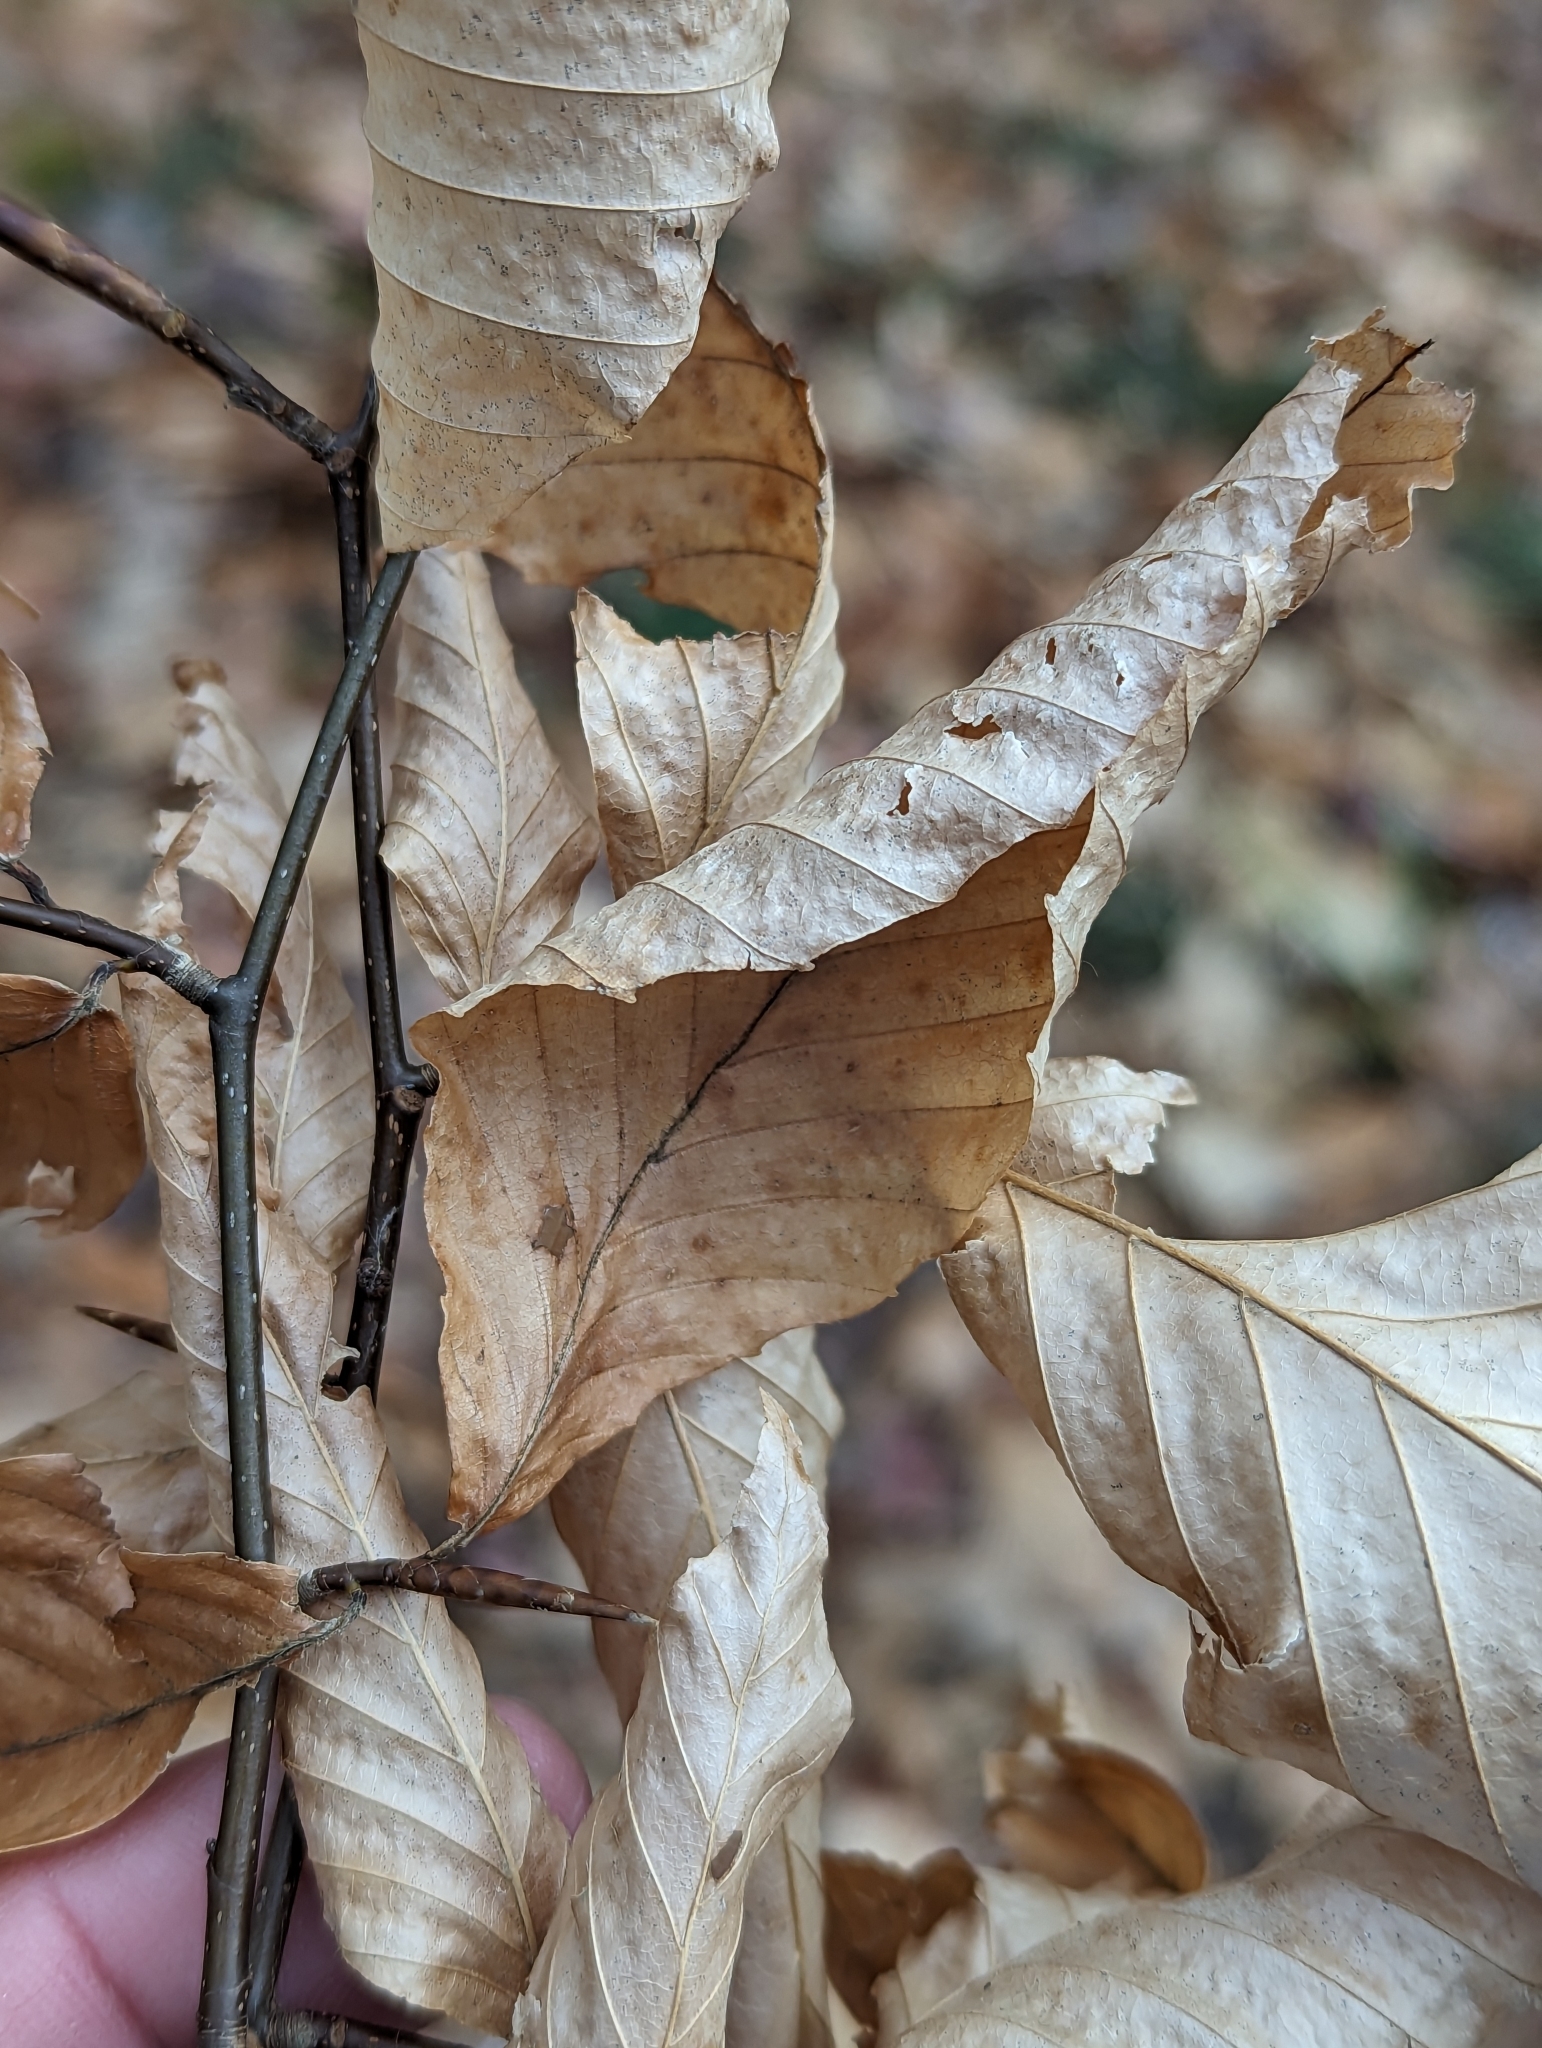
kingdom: Plantae
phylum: Tracheophyta
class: Magnoliopsida
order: Fagales
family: Fagaceae
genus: Fagus
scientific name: Fagus grandifolia
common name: American beech
